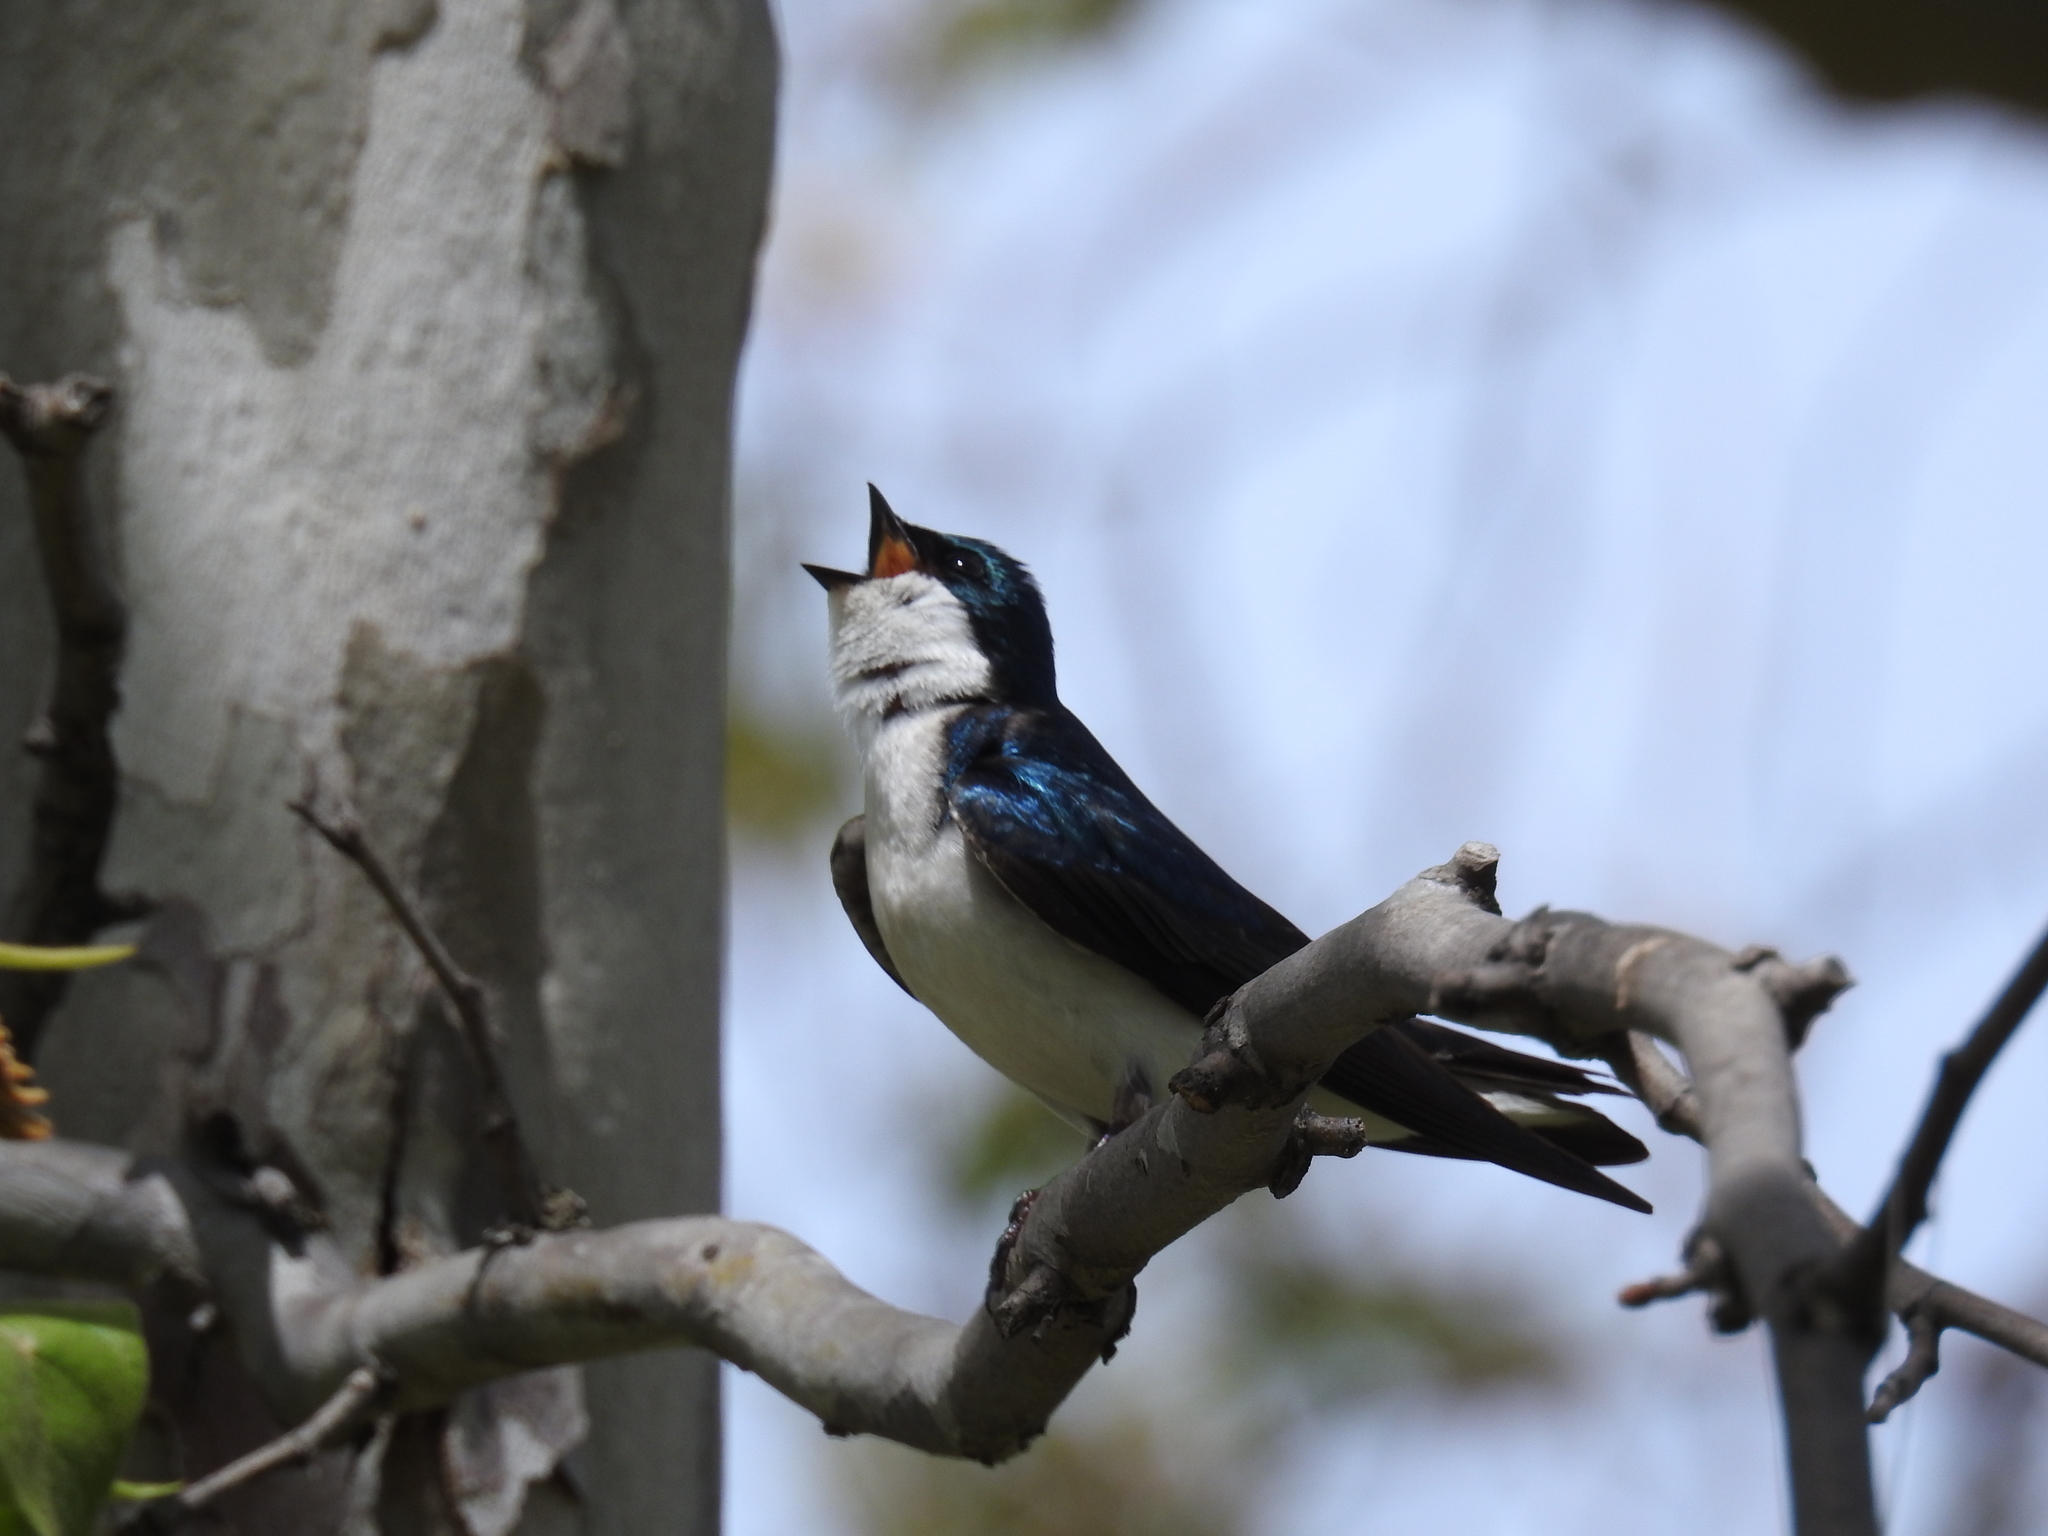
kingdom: Animalia
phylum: Chordata
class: Aves
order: Passeriformes
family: Hirundinidae
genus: Tachycineta
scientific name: Tachycineta bicolor
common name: Tree swallow
